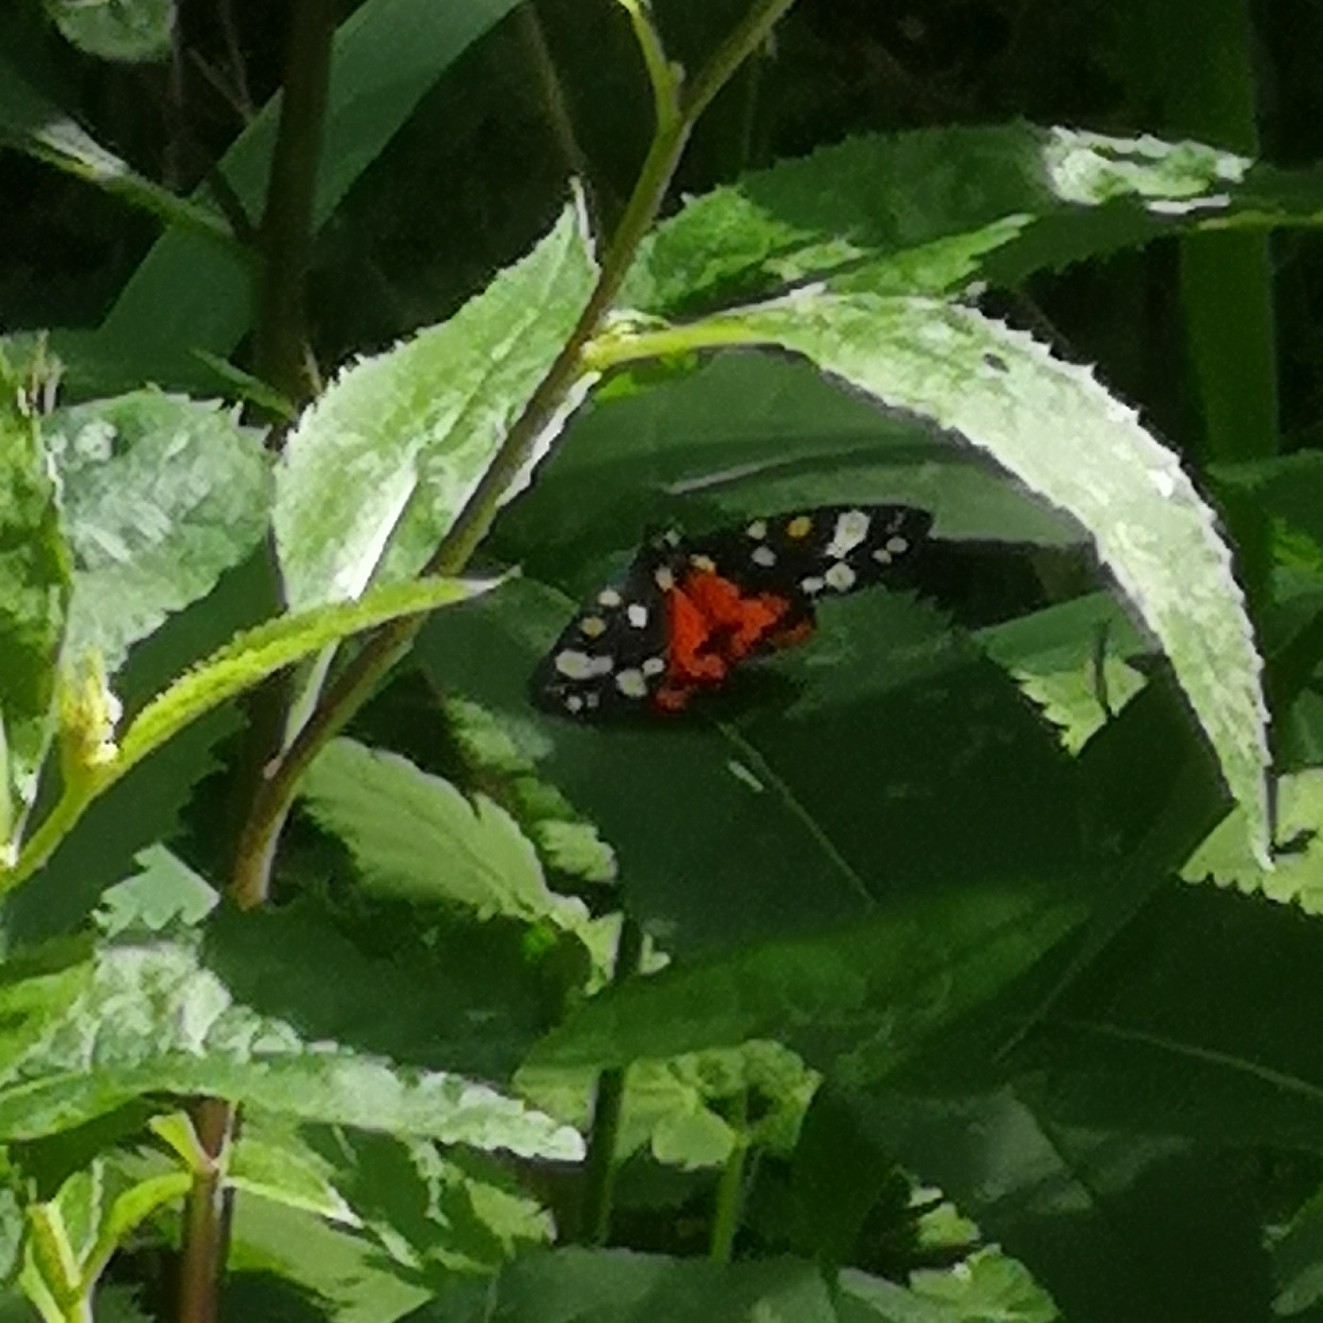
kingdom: Animalia
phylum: Arthropoda
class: Insecta
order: Lepidoptera
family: Erebidae
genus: Callimorpha
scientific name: Callimorpha dominula
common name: Scarlet tiger
